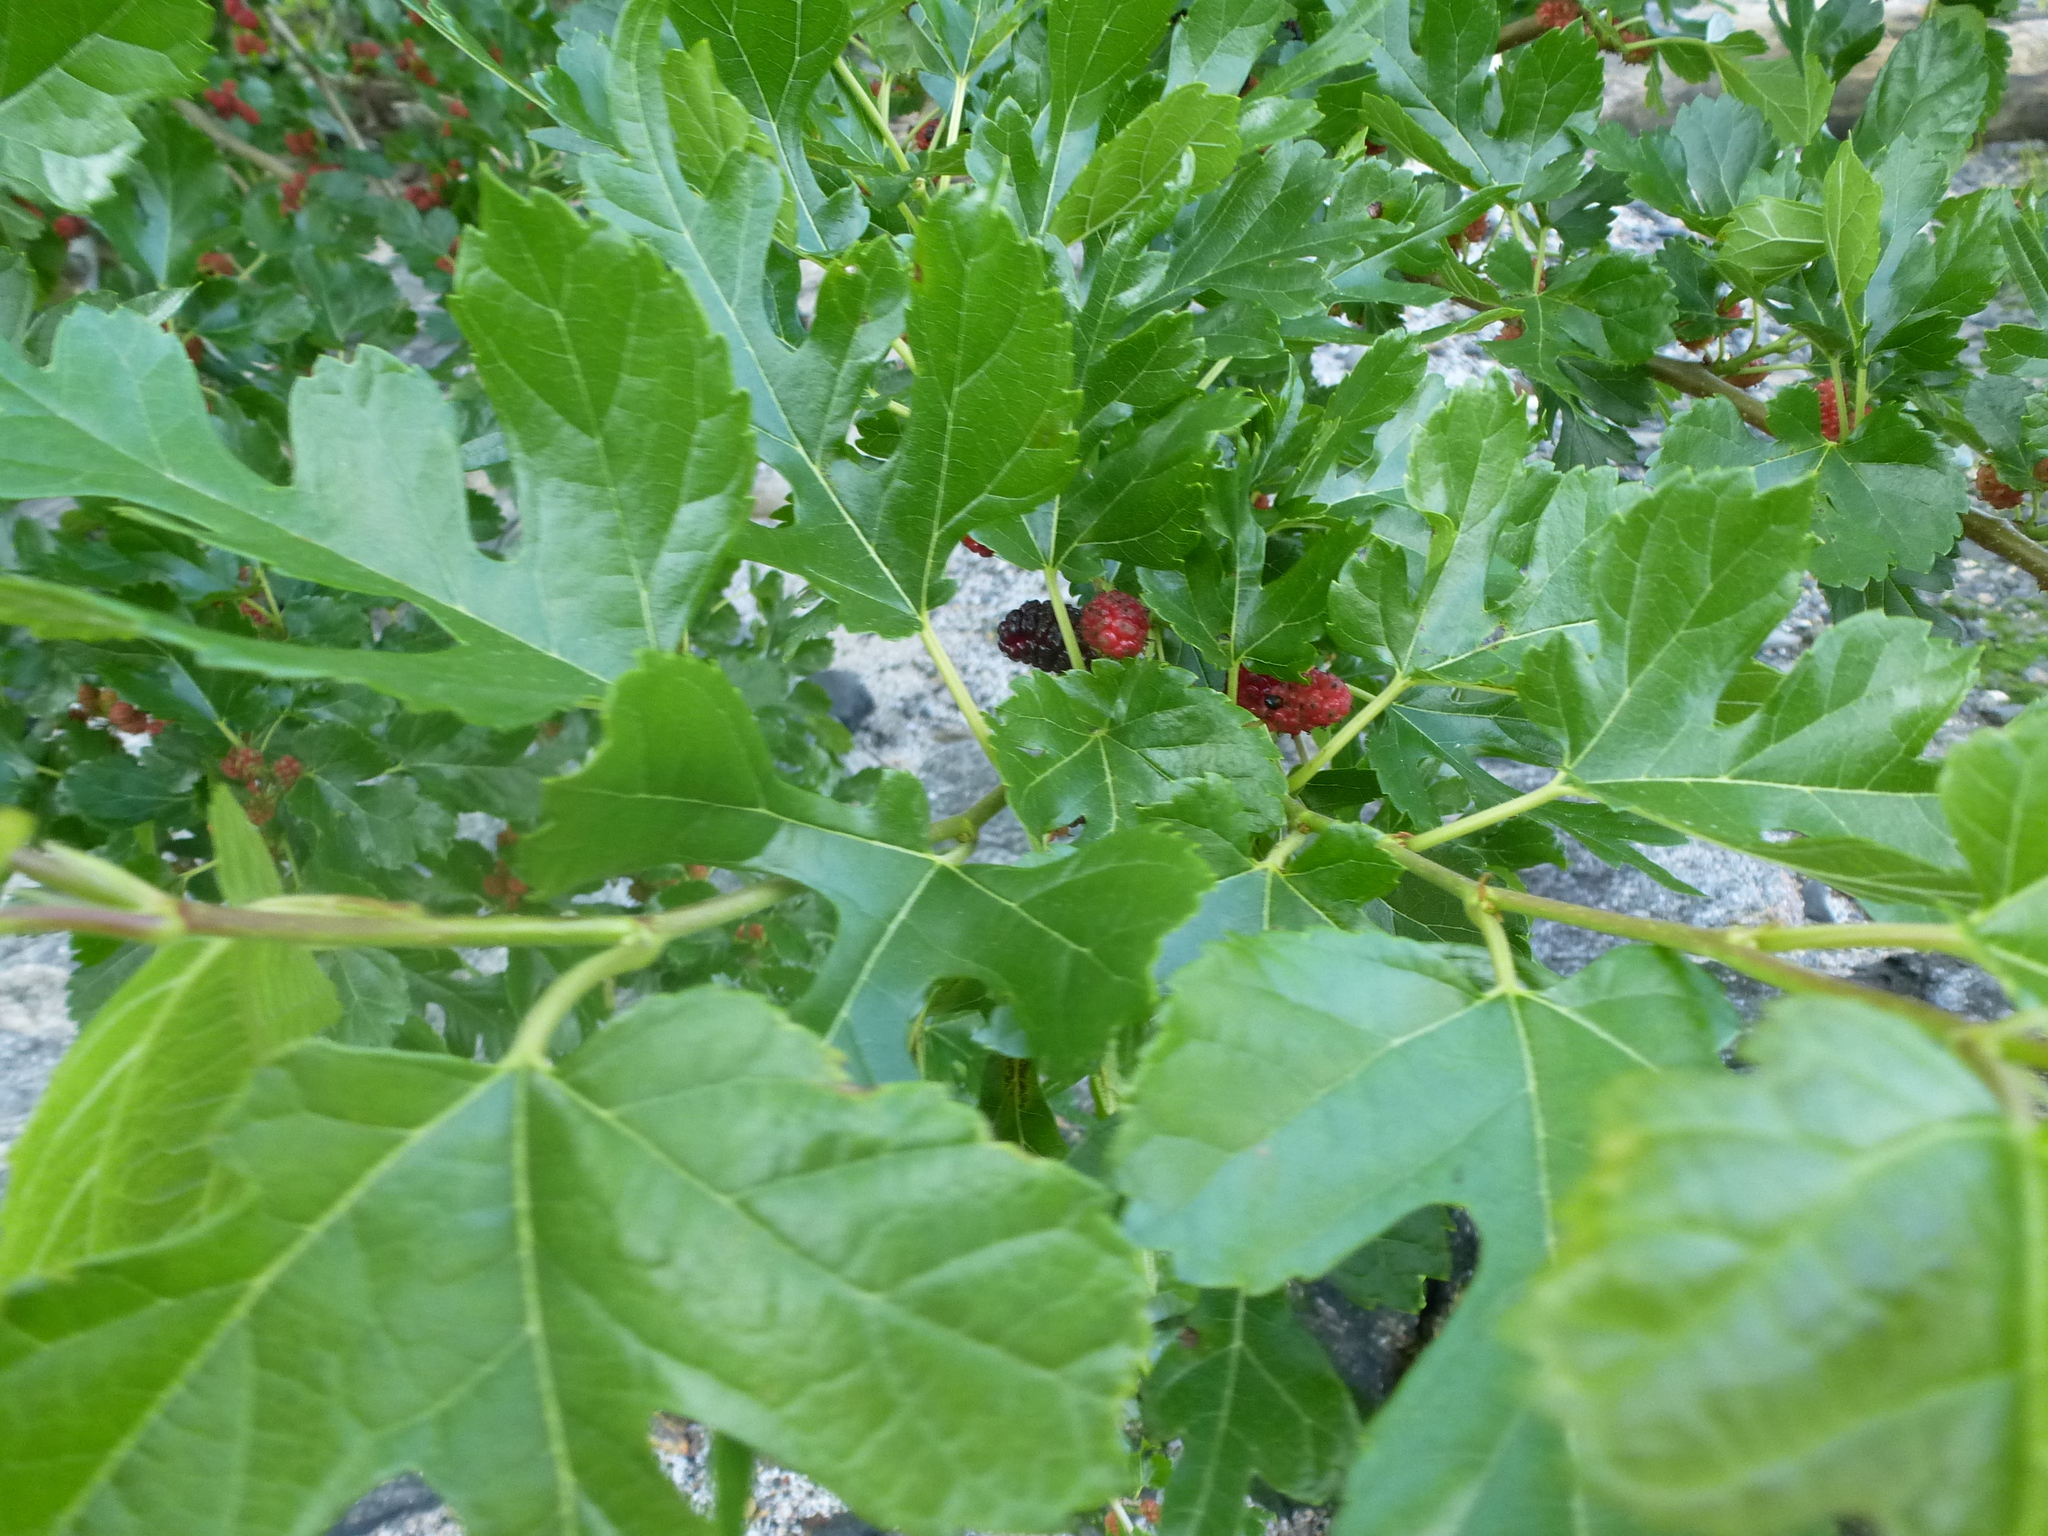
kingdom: Plantae
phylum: Tracheophyta
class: Magnoliopsida
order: Rosales
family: Moraceae
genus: Morus
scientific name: Morus alba
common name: White mulberry
